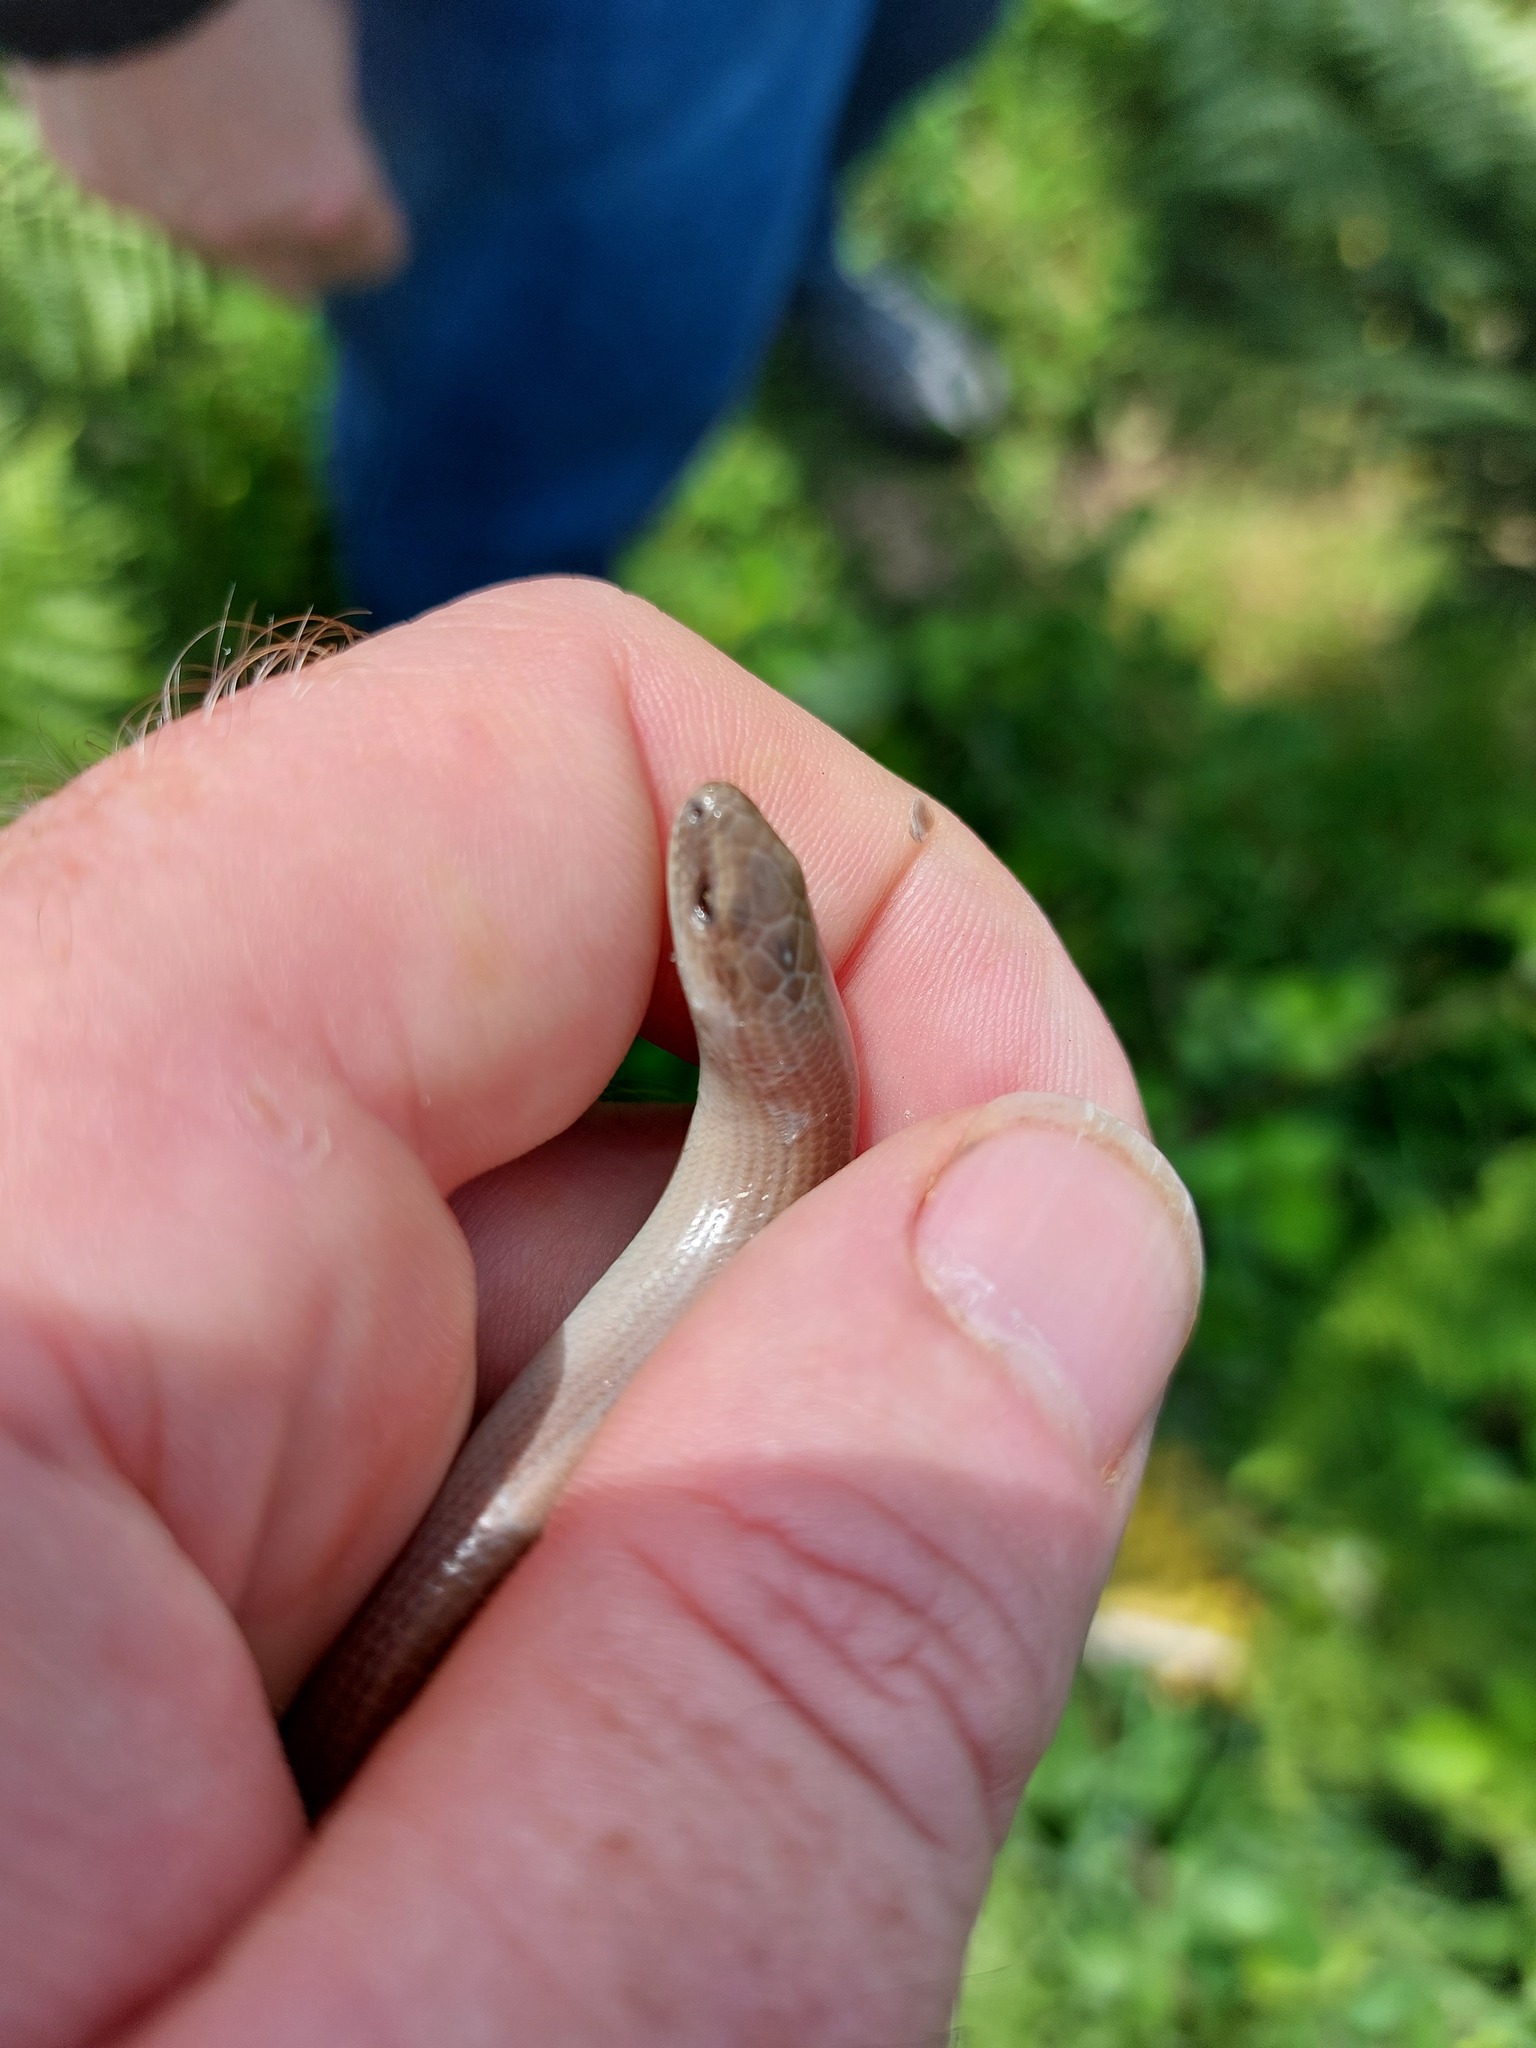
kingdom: Animalia
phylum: Chordata
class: Squamata
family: Anguidae
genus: Anguis
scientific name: Anguis fragilis
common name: Slow worm
